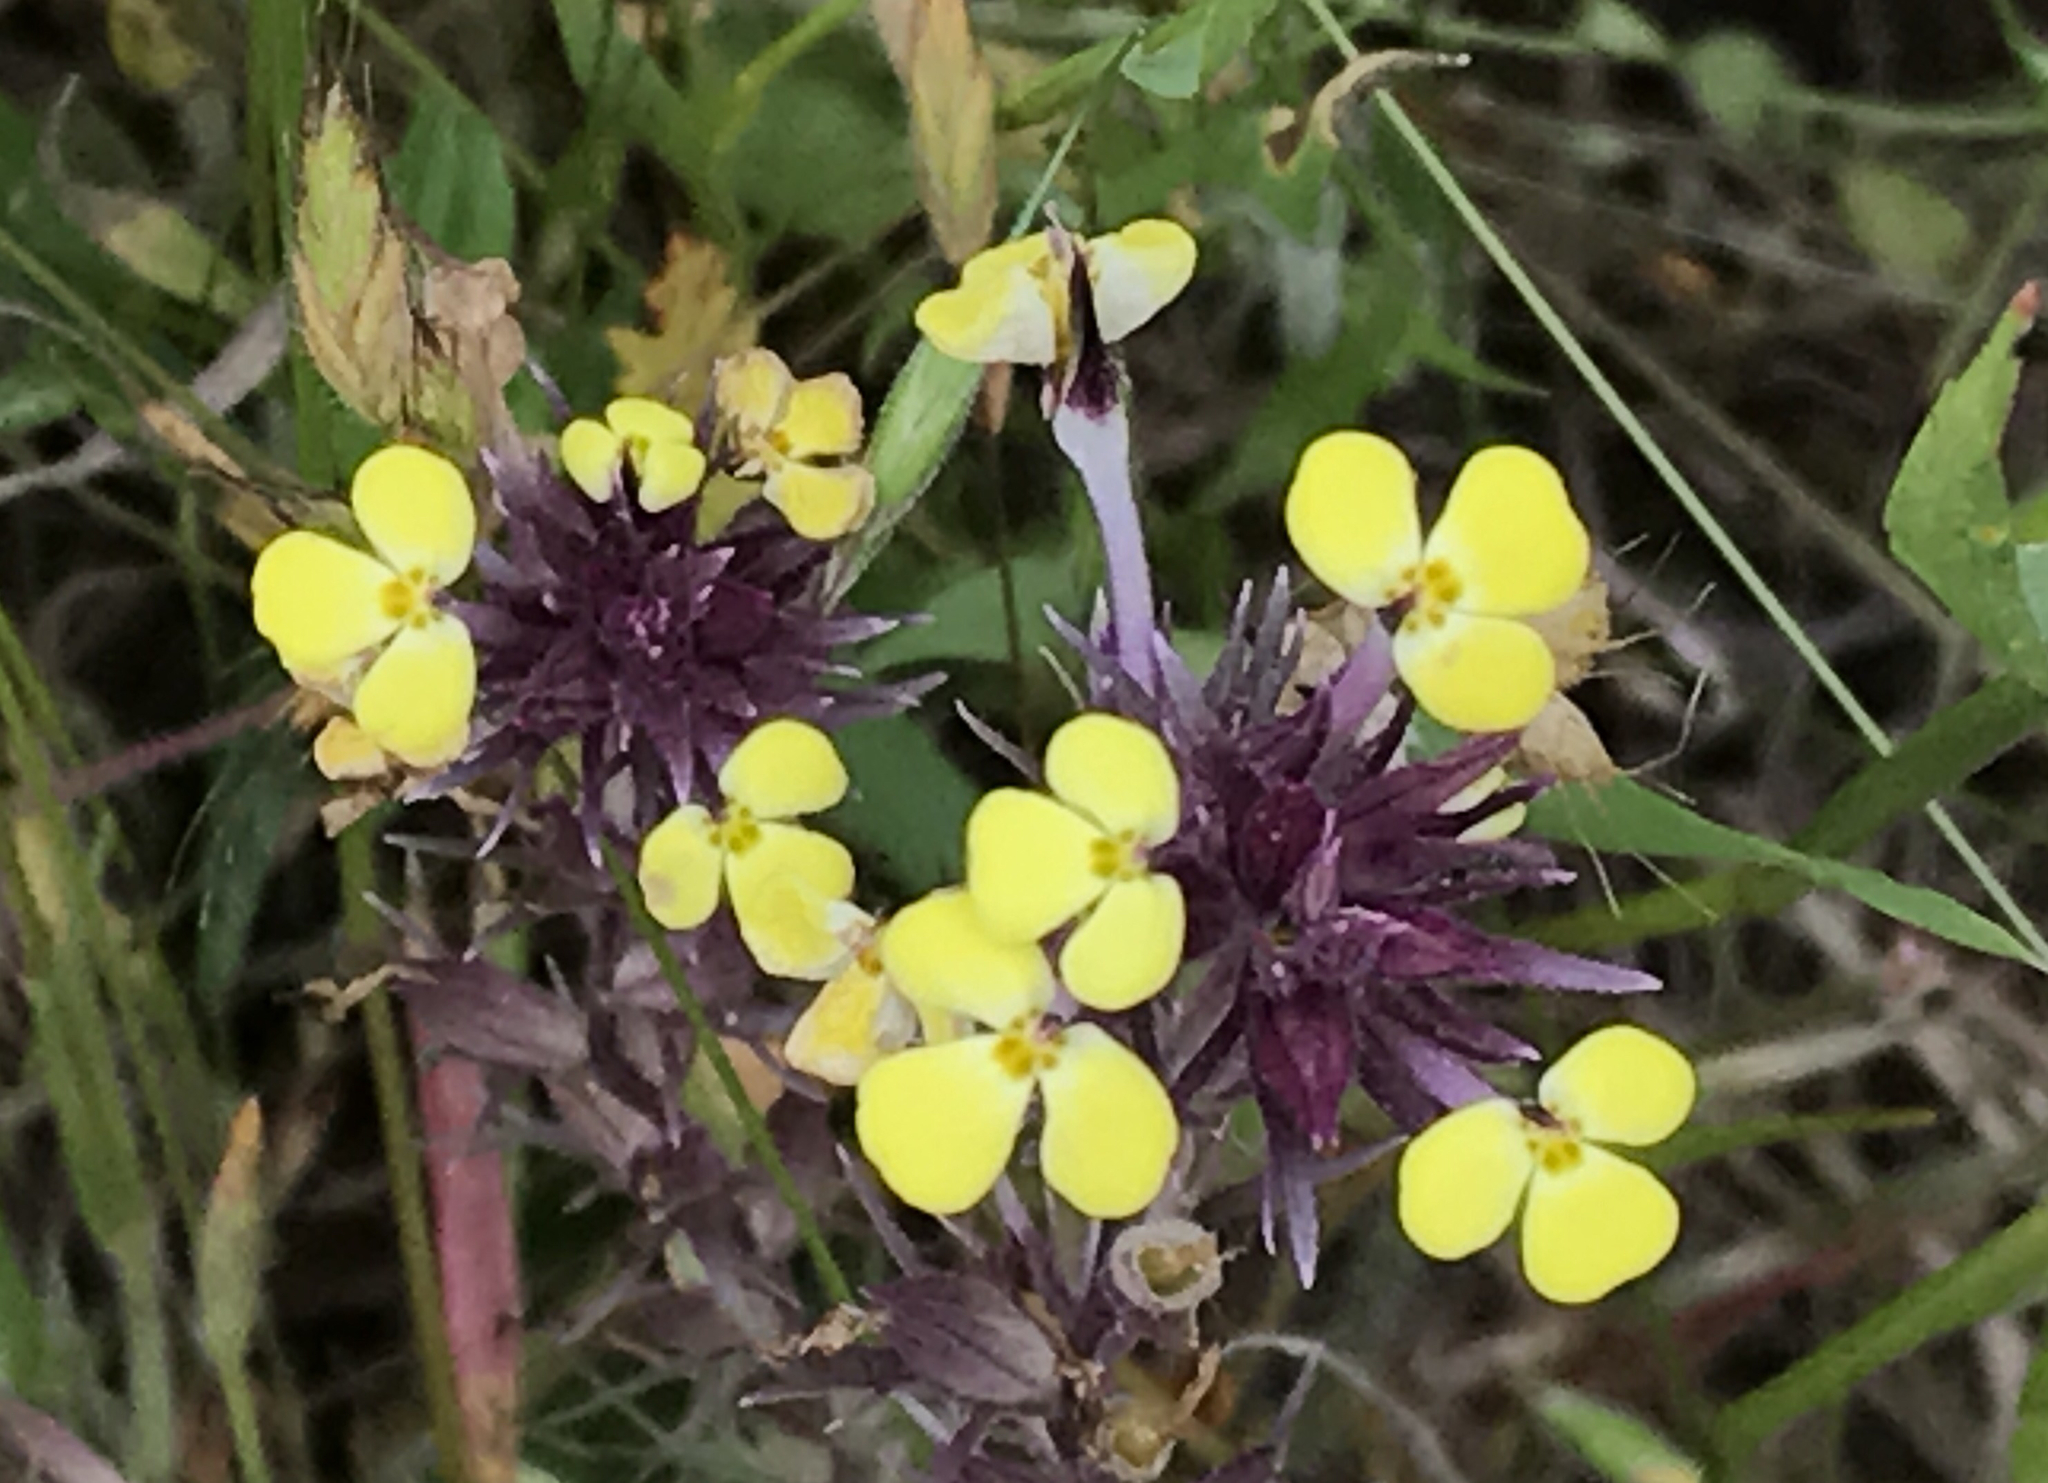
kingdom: Plantae
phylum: Tracheophyta
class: Magnoliopsida
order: Lamiales
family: Orobanchaceae
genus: Triphysaria
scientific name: Triphysaria eriantha
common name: Johnny-tuck
